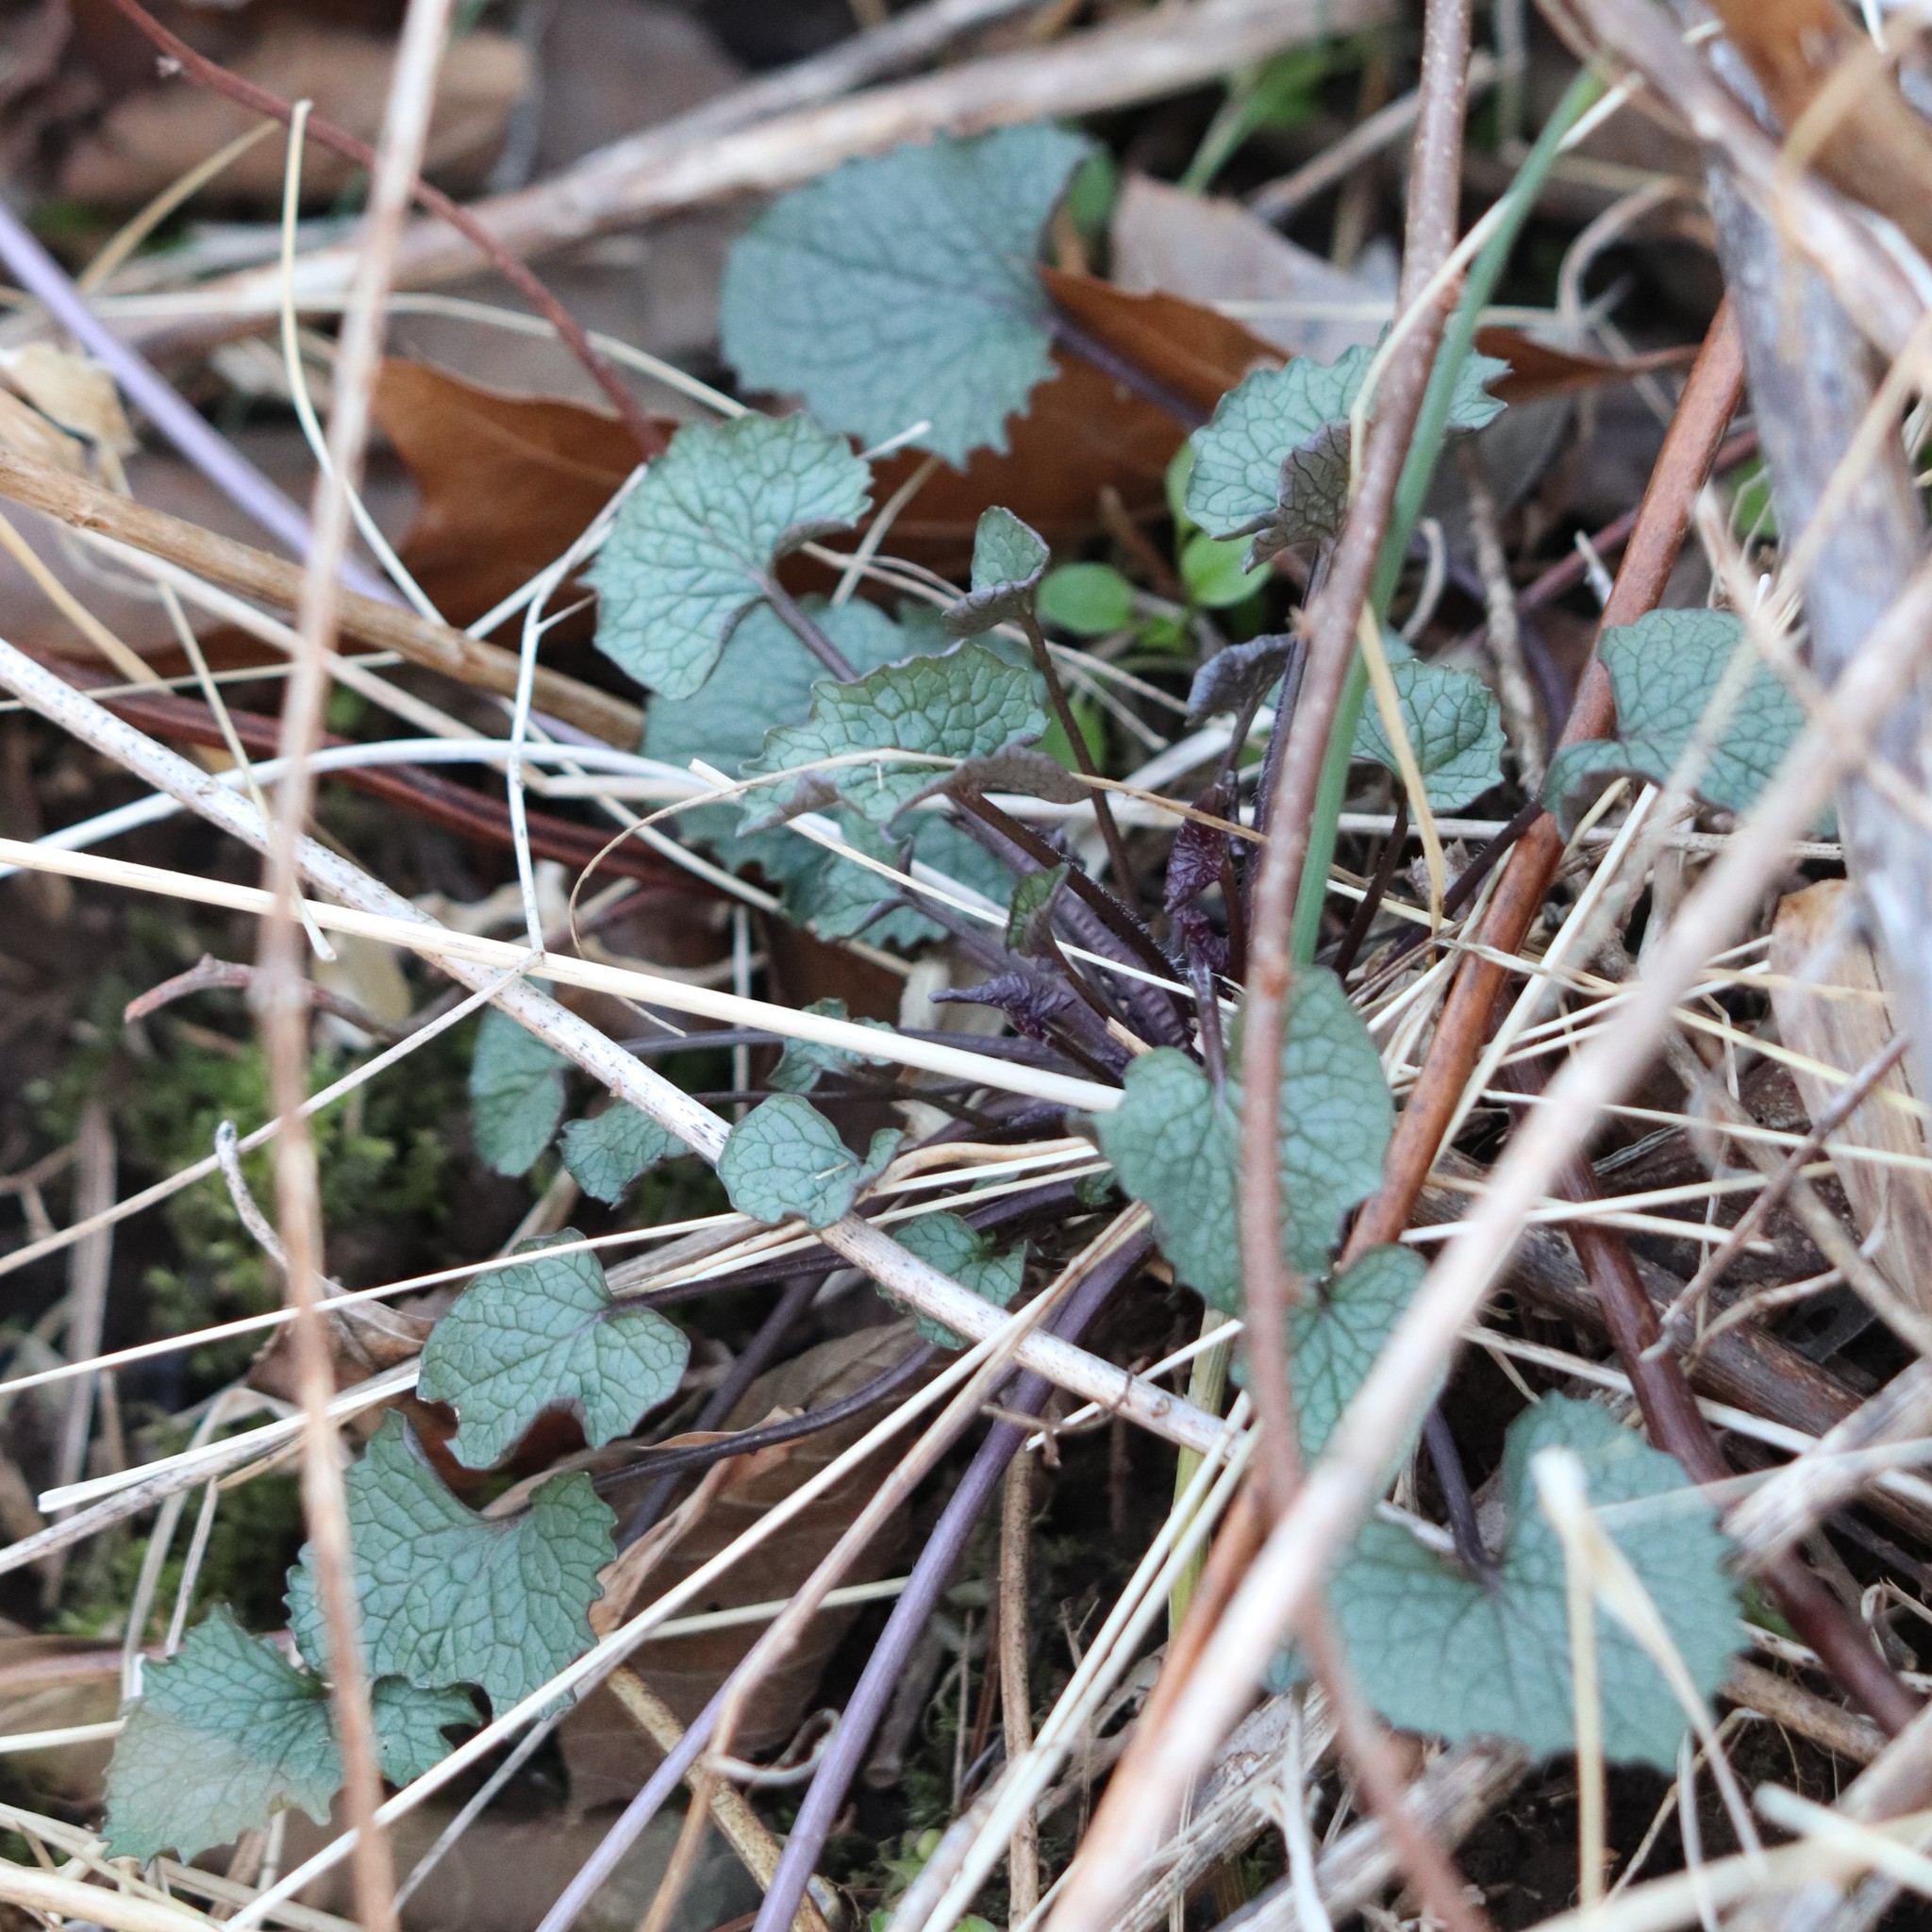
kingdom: Plantae
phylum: Tracheophyta
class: Magnoliopsida
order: Brassicales
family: Brassicaceae
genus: Alliaria
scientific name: Alliaria petiolata
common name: Garlic mustard
